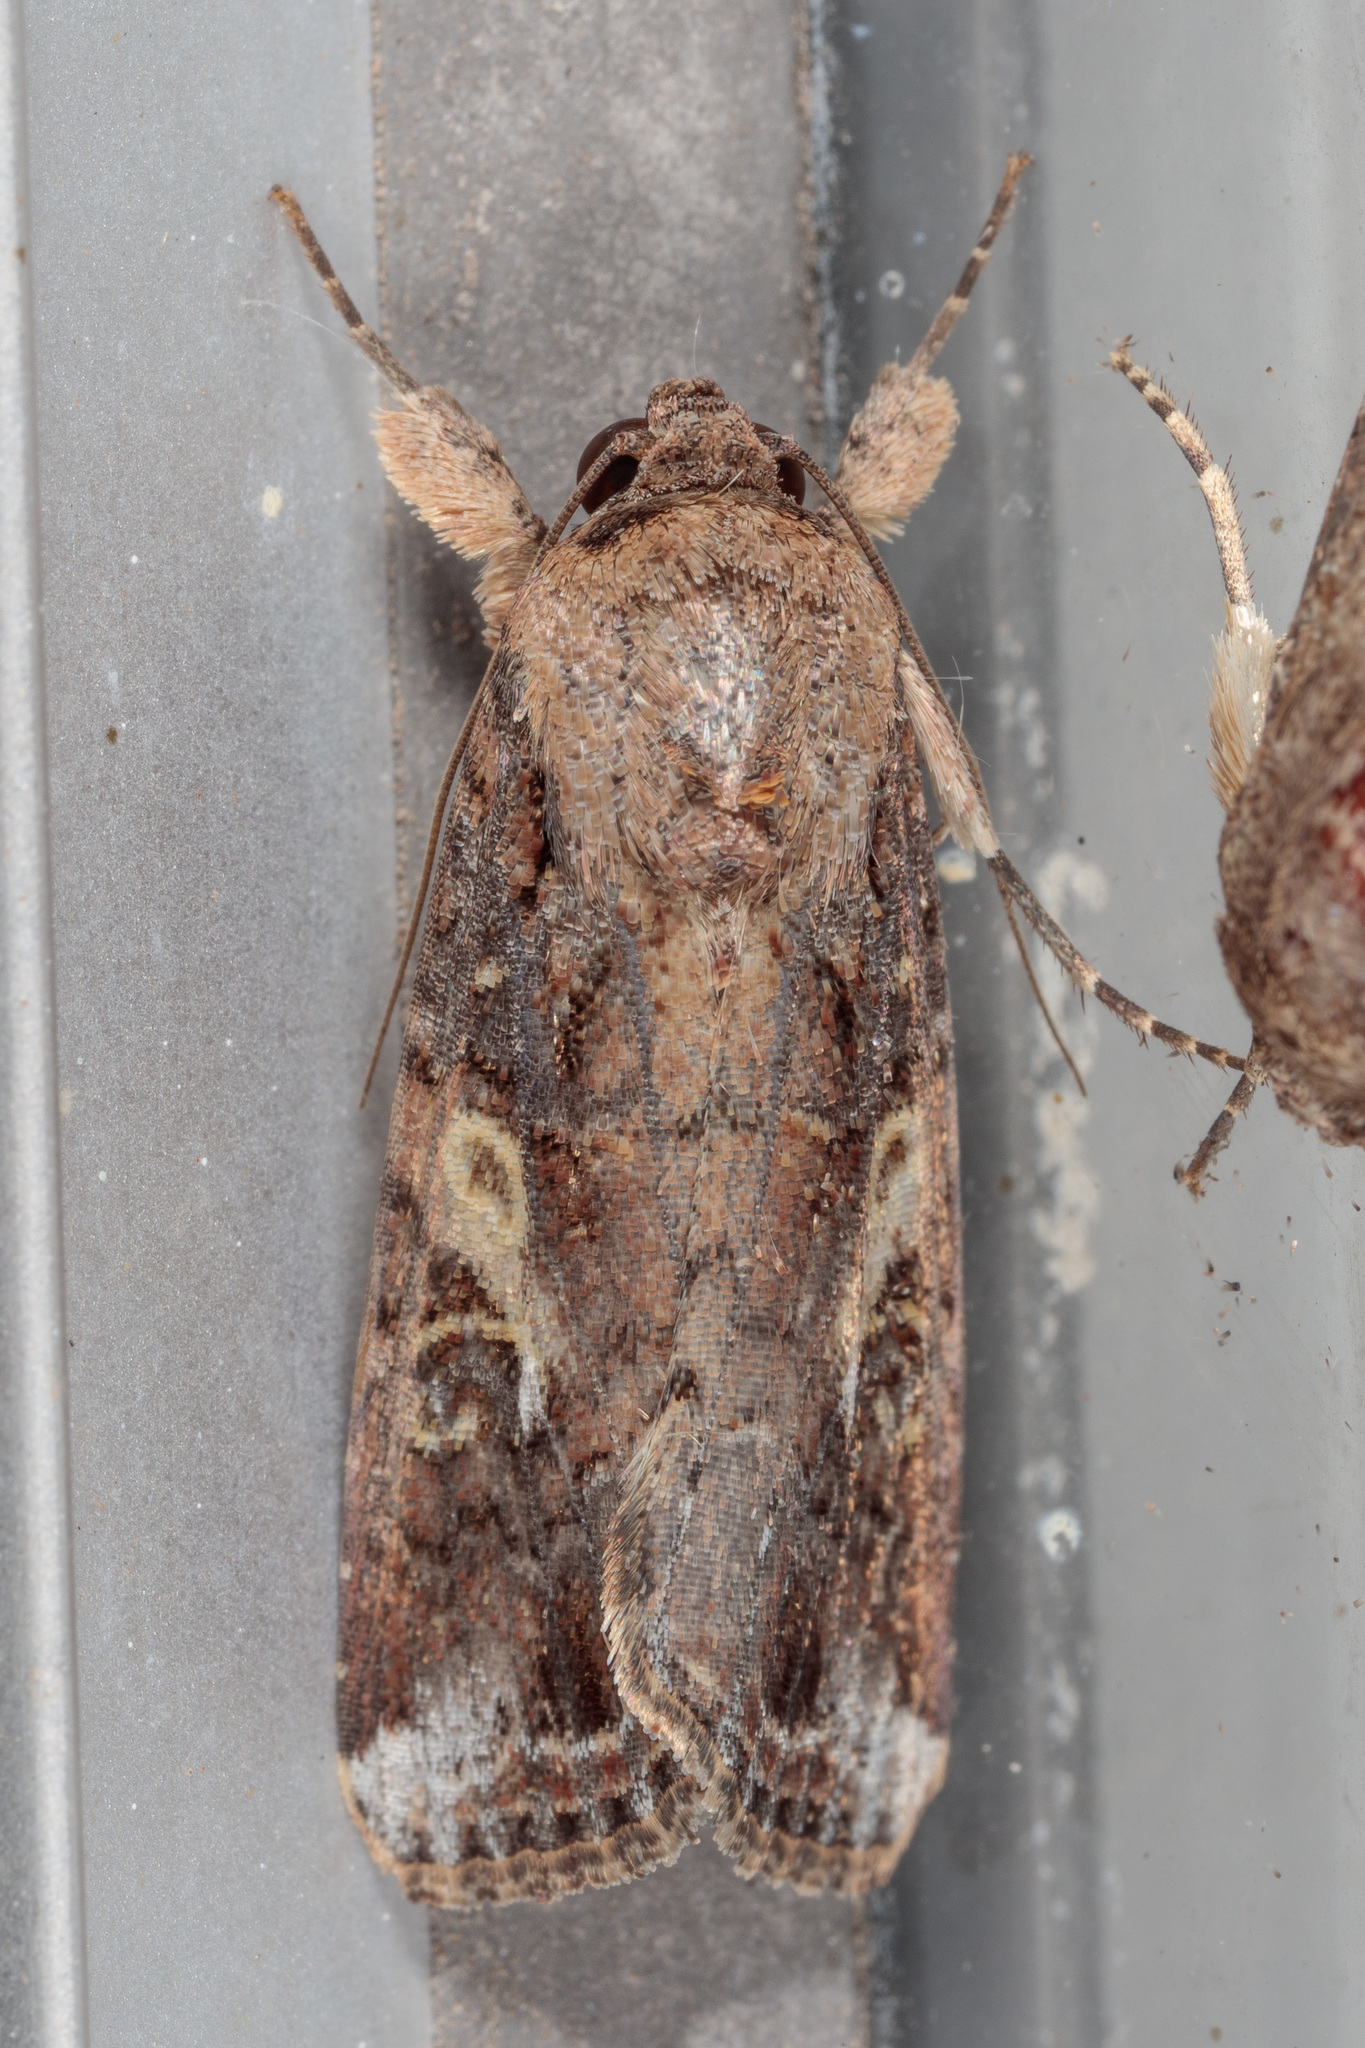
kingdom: Animalia
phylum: Arthropoda
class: Insecta
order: Lepidoptera
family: Noctuidae
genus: Spodoptera
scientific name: Spodoptera frugiperda
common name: Fall armyworm
